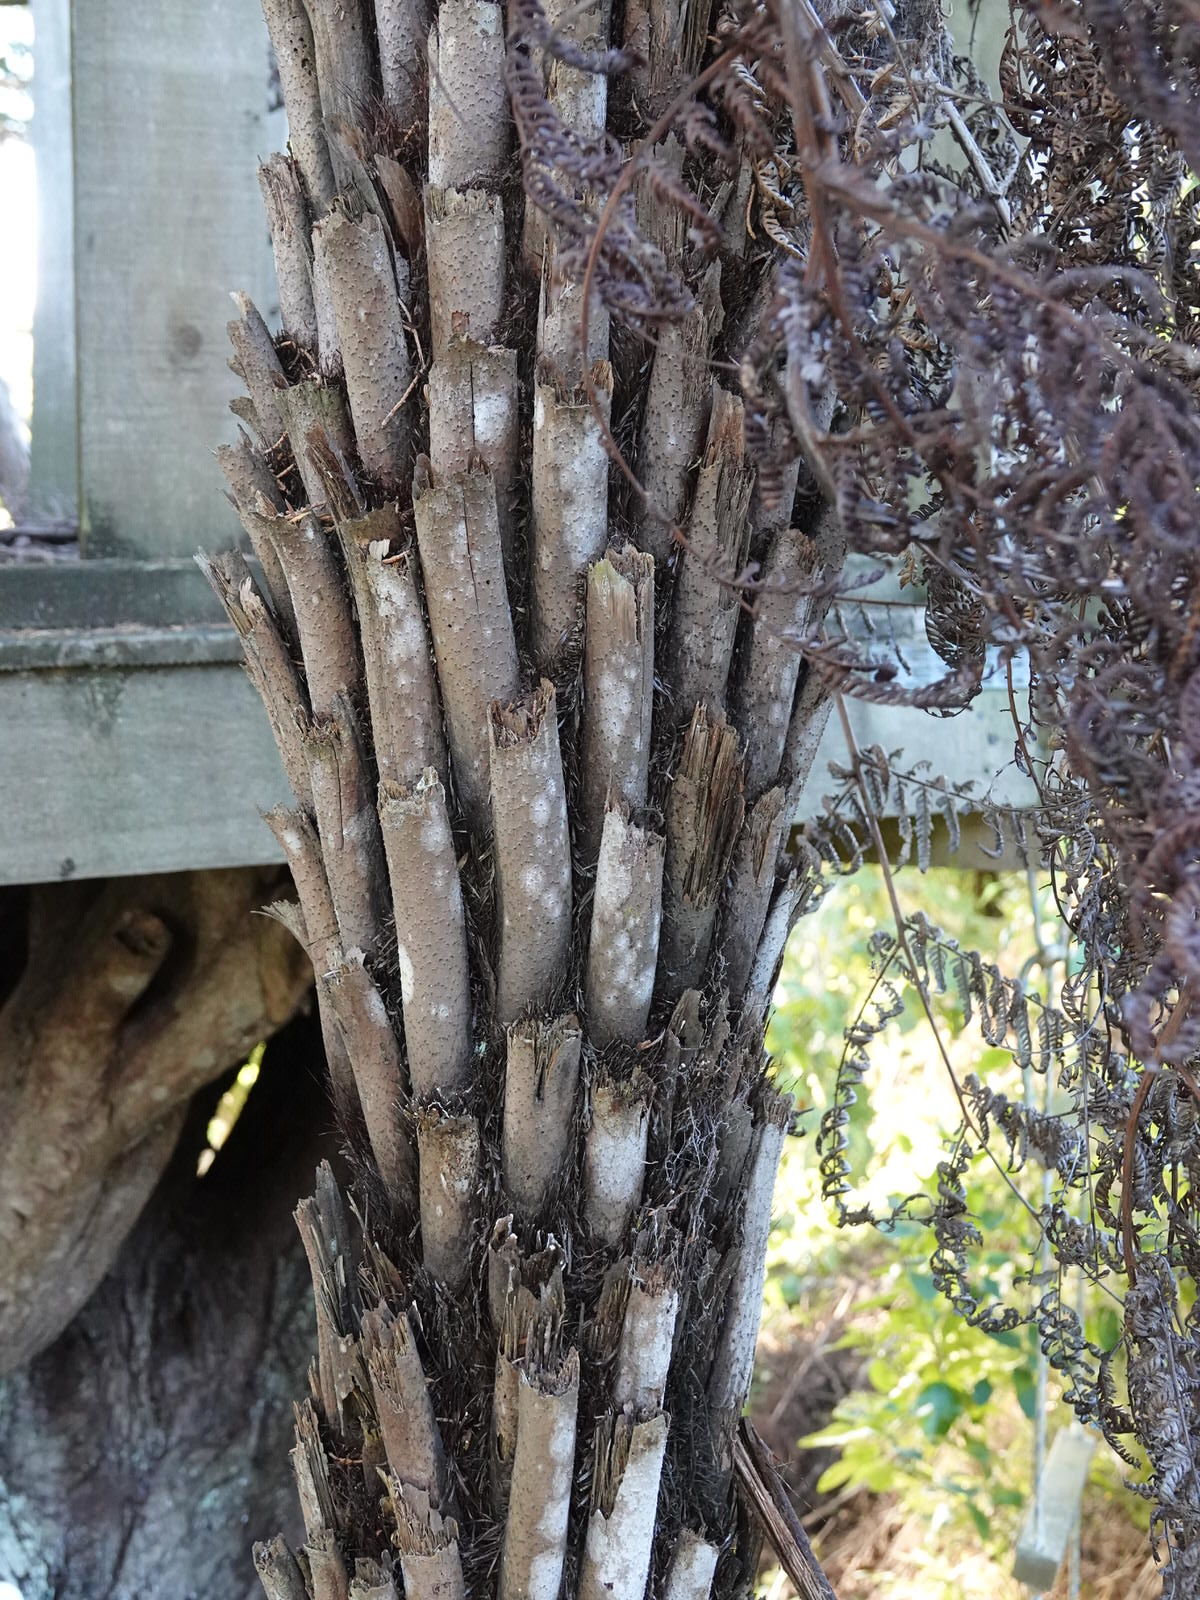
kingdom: Plantae
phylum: Tracheophyta
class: Polypodiopsida
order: Cyatheales
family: Cyatheaceae
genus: Alsophila
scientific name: Alsophila dealbata
